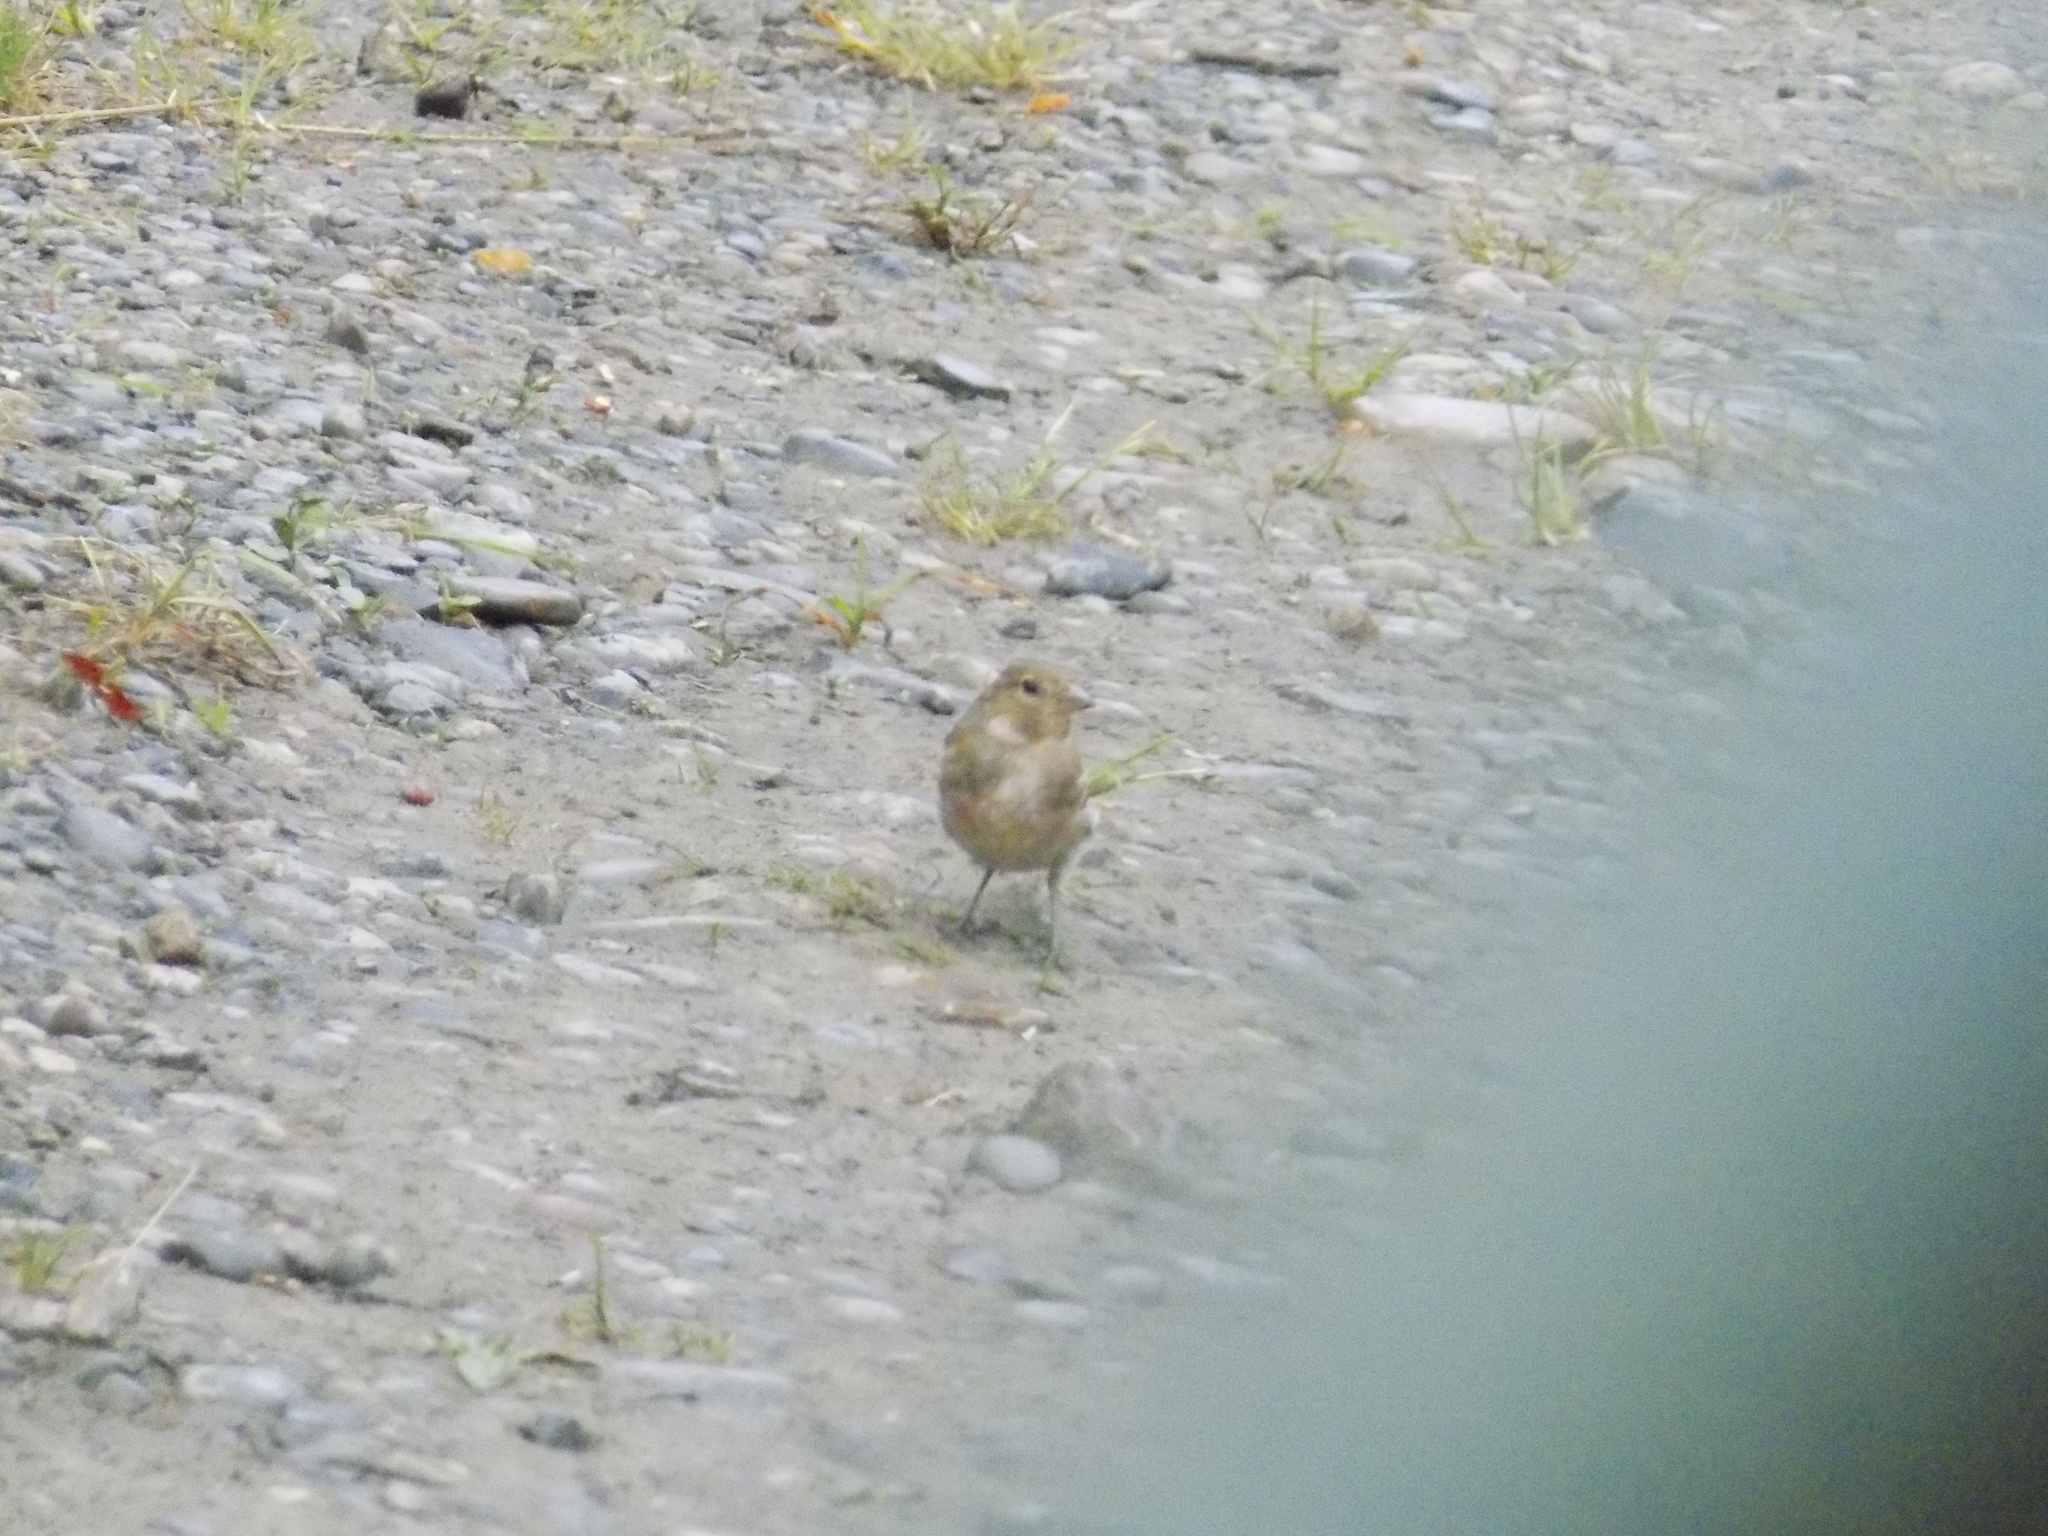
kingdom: Animalia
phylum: Chordata
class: Aves
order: Passeriformes
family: Fringillidae
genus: Fringilla
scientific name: Fringilla coelebs
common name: Common chaffinch
